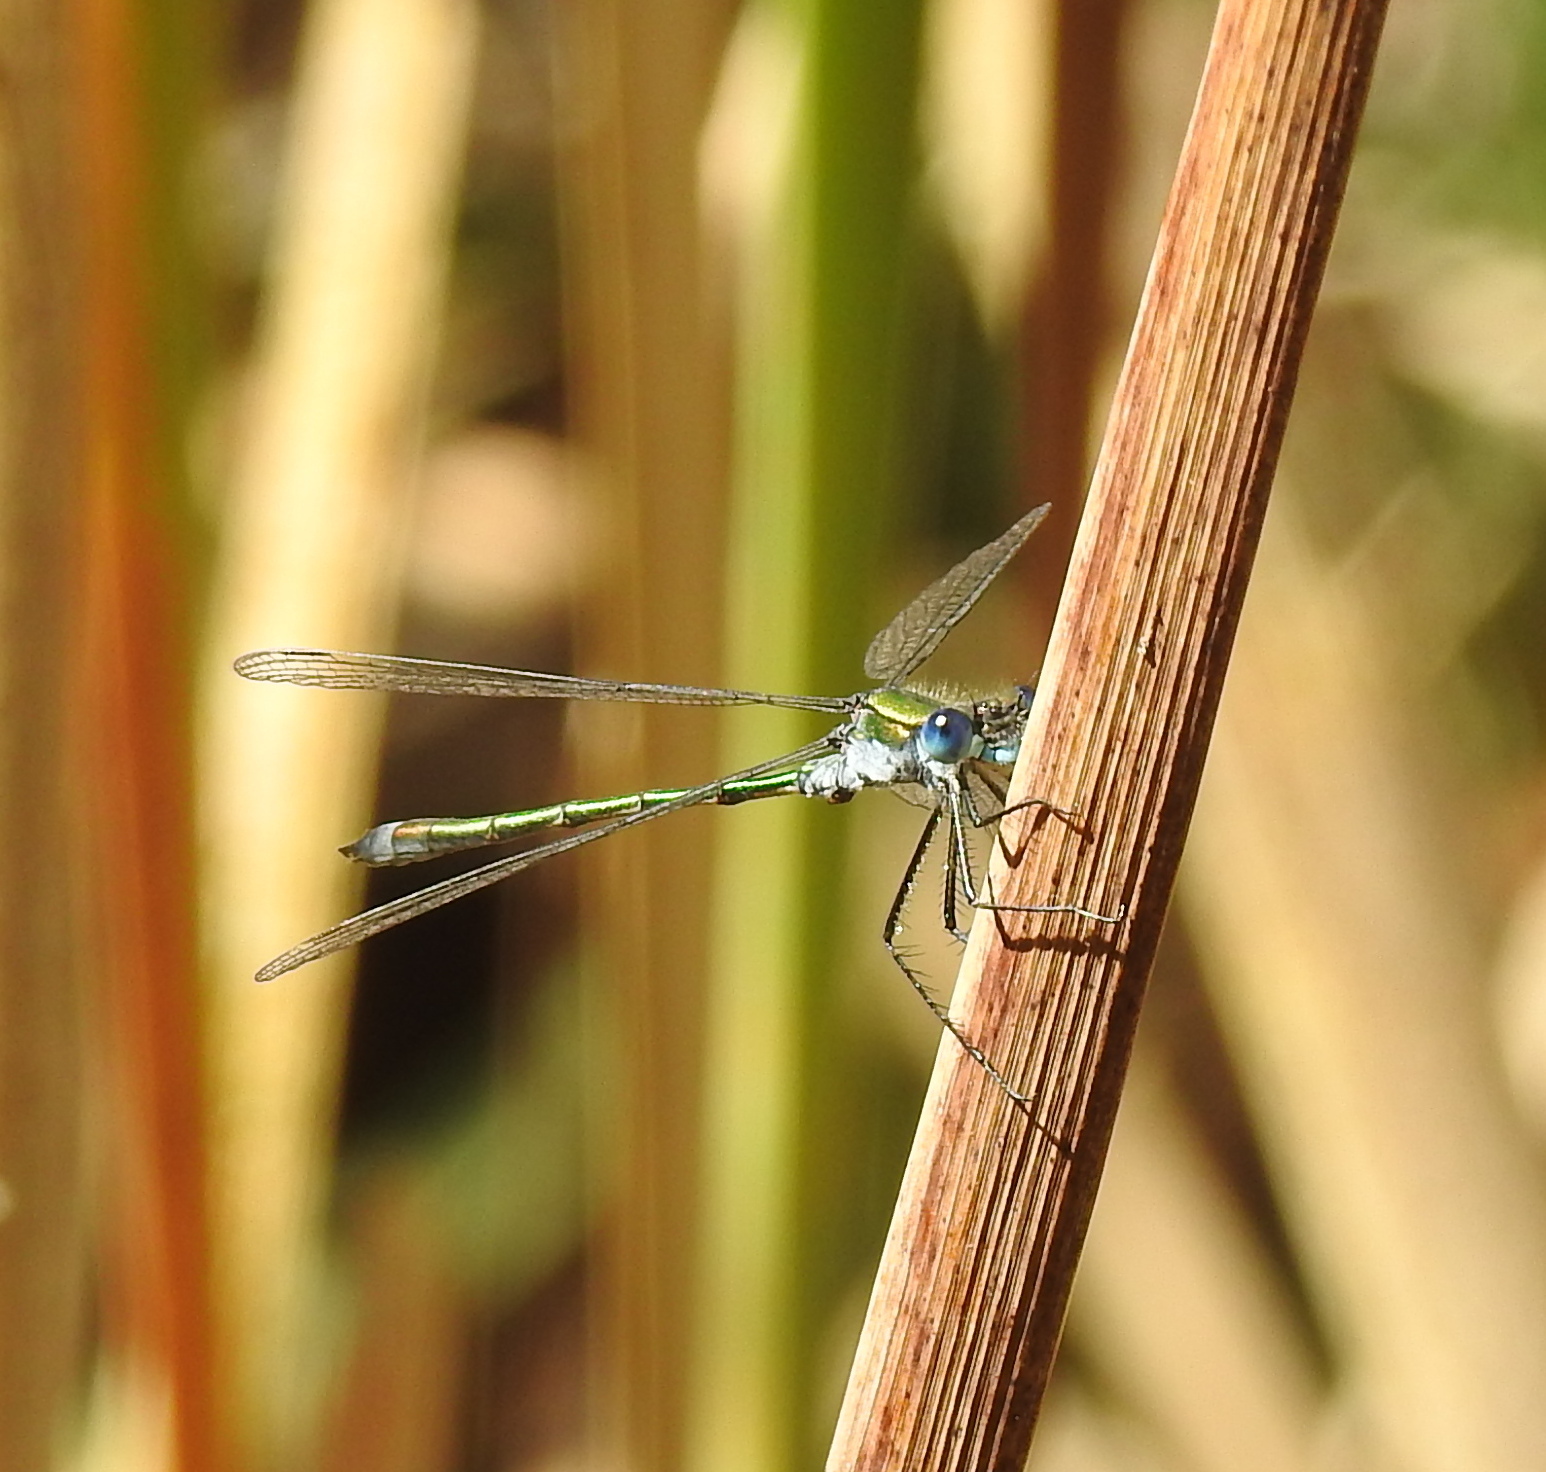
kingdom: Animalia
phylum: Arthropoda
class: Insecta
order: Odonata
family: Lestidae
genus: Lestes
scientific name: Lestes sponsa
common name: Common spreadwing
